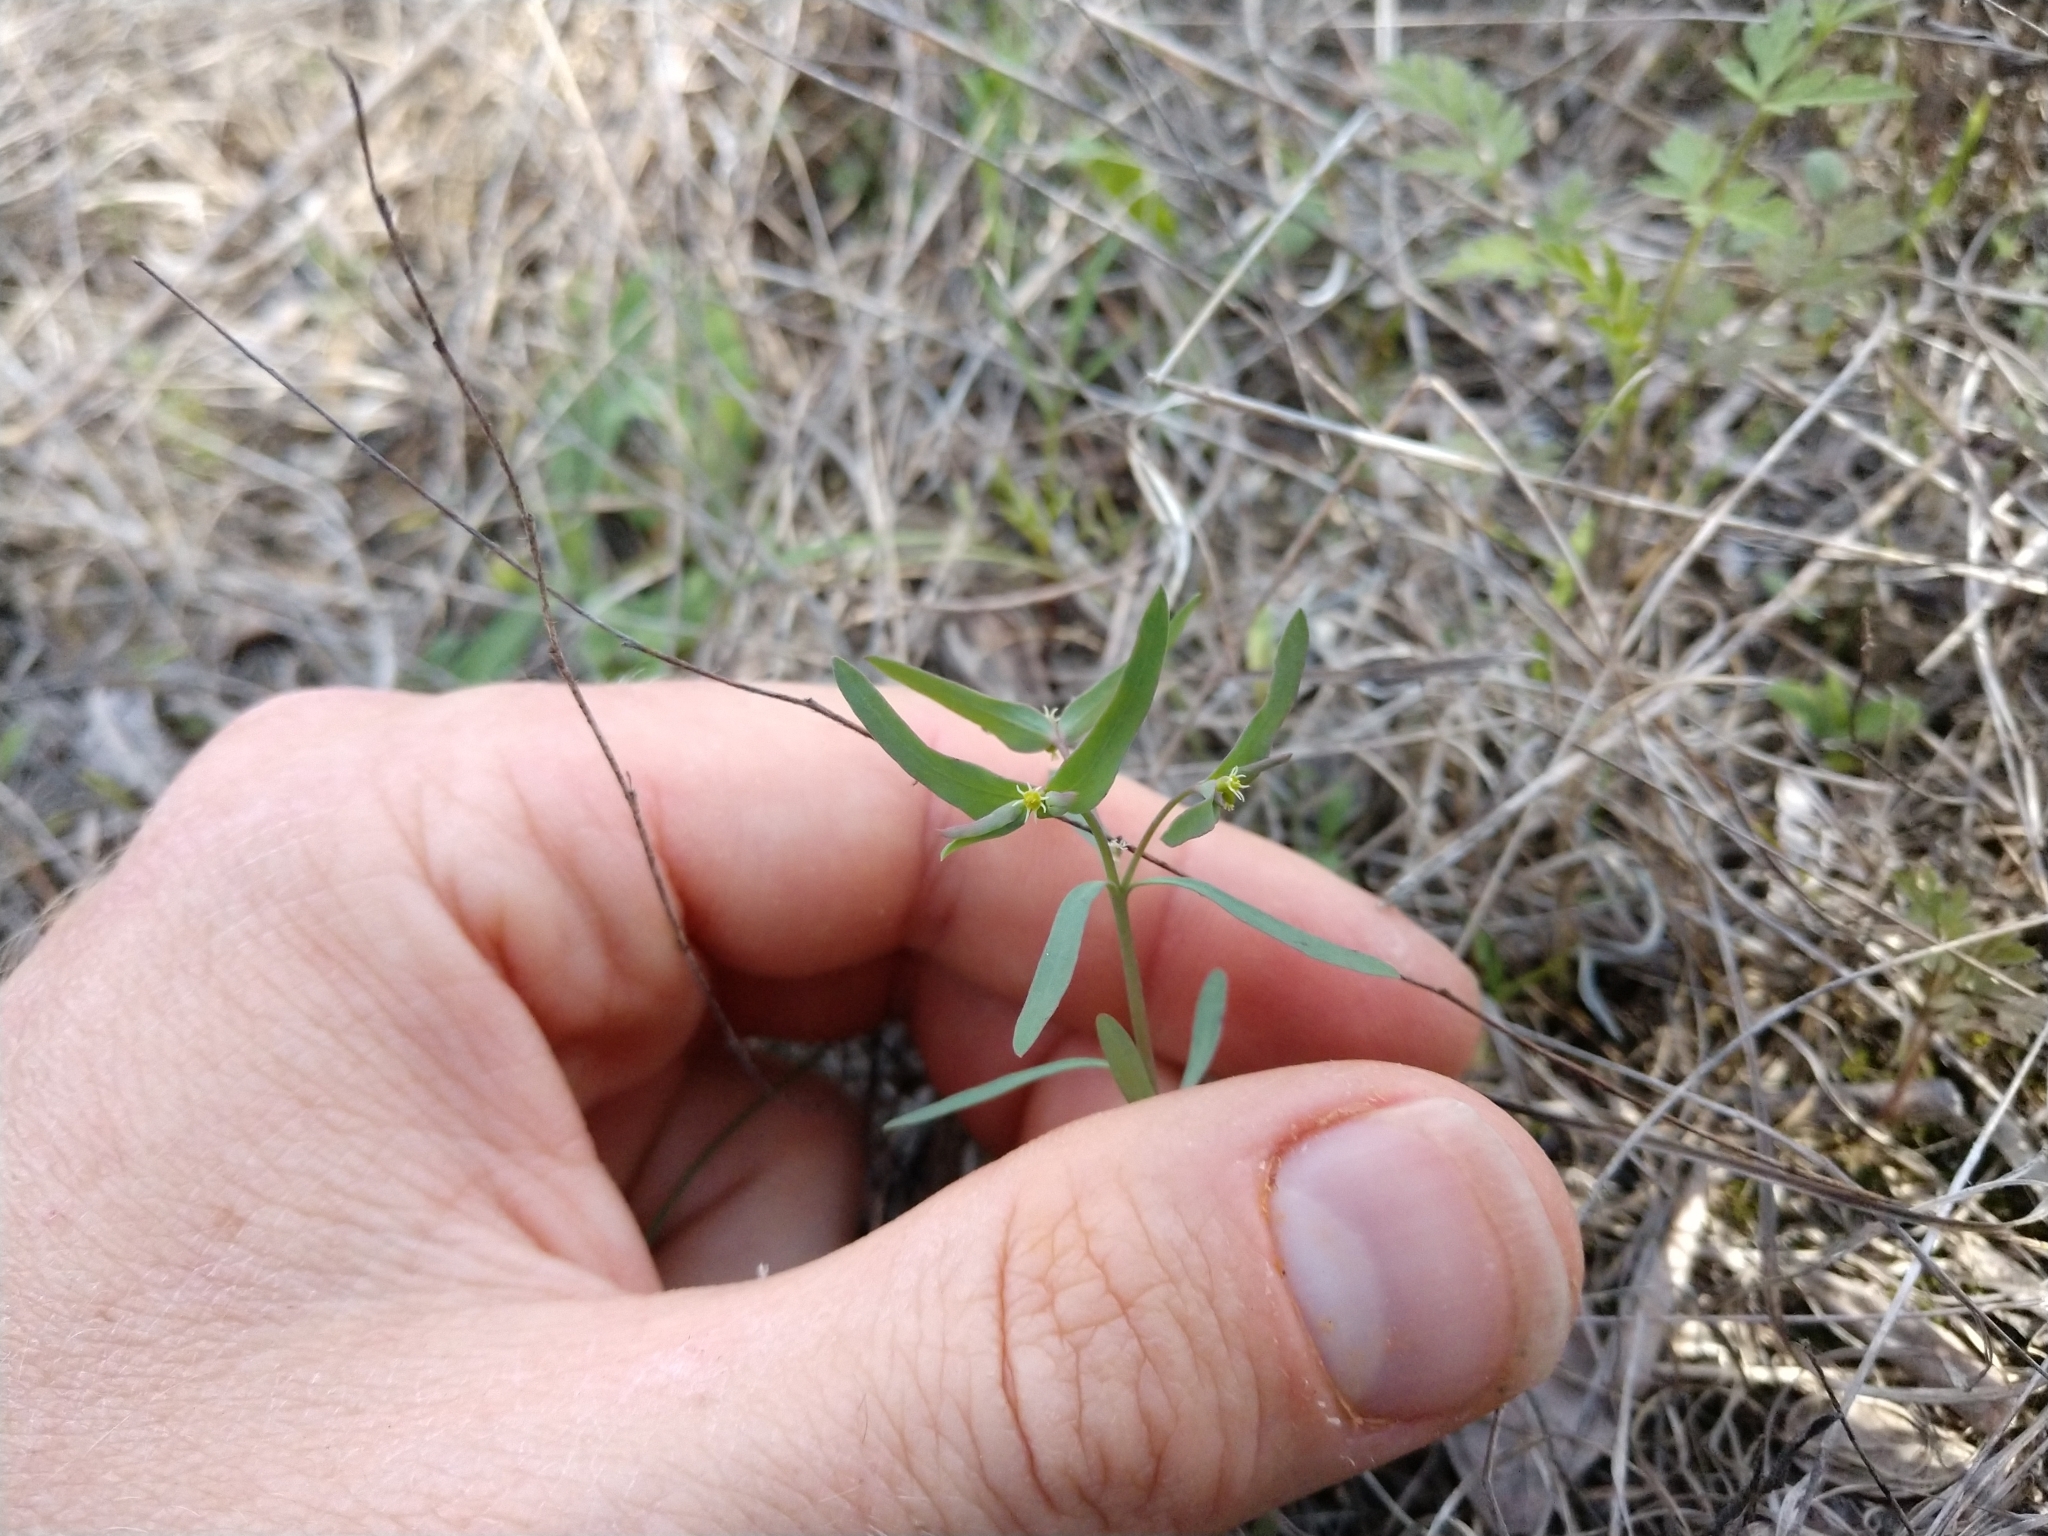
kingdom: Plantae
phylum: Tracheophyta
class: Magnoliopsida
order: Malpighiales
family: Euphorbiaceae
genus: Euphorbia
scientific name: Euphorbia peplidion
